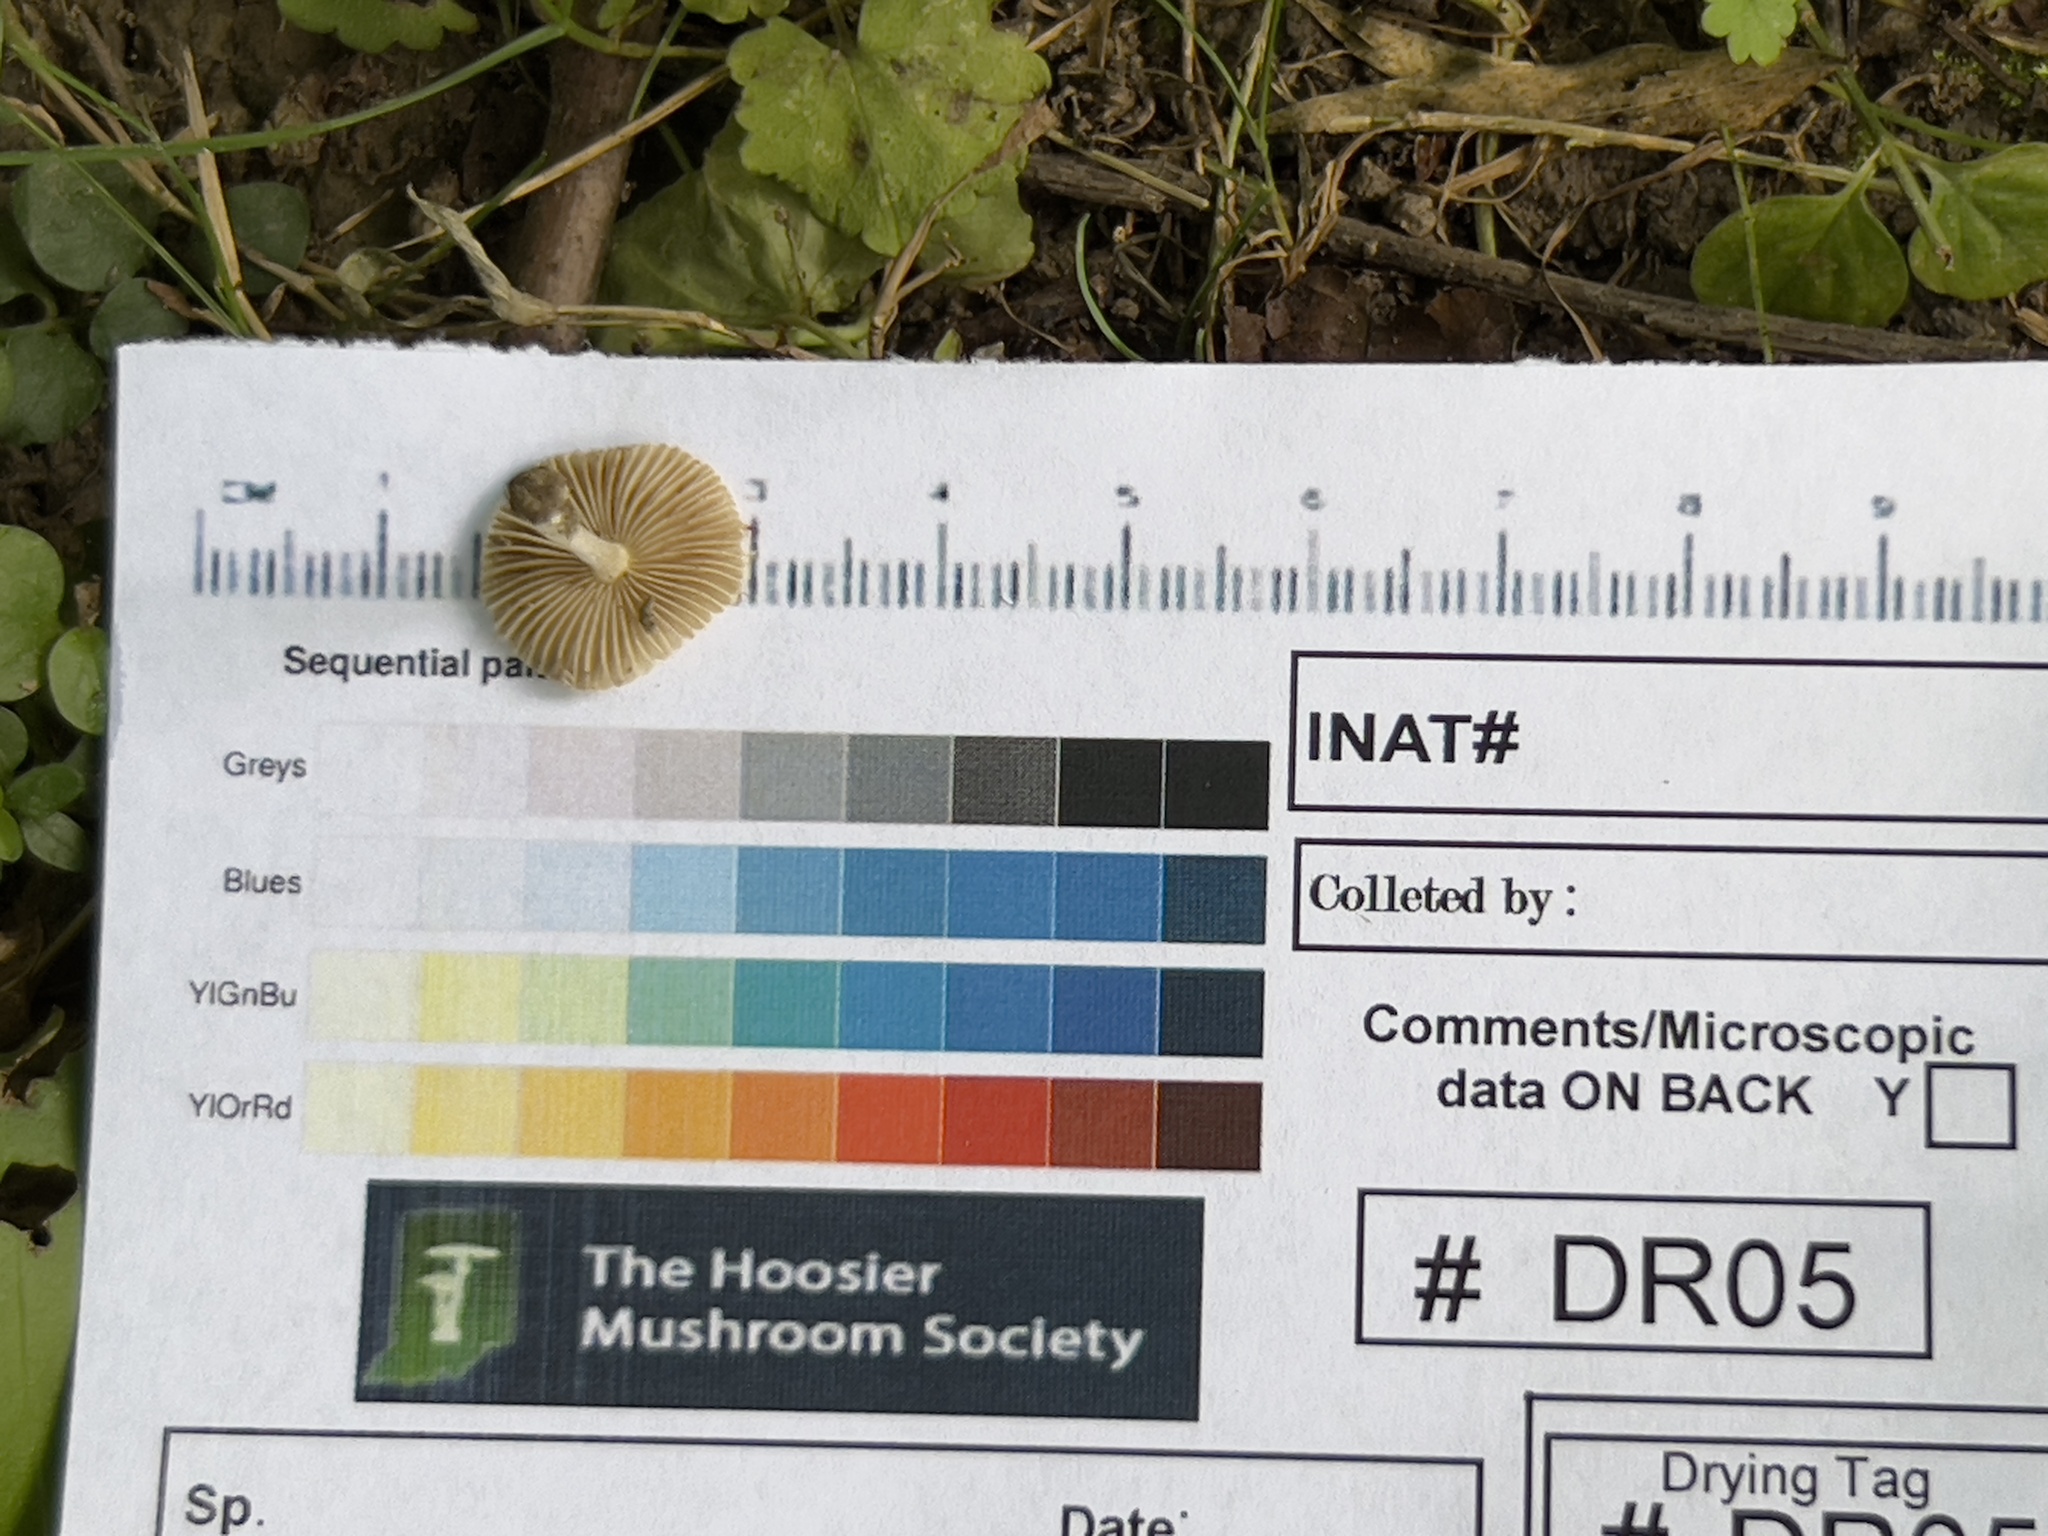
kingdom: Fungi
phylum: Basidiomycota
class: Agaricomycetes
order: Agaricales
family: Inocybaceae
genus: Pseudosperma
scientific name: Pseudosperma friabile
